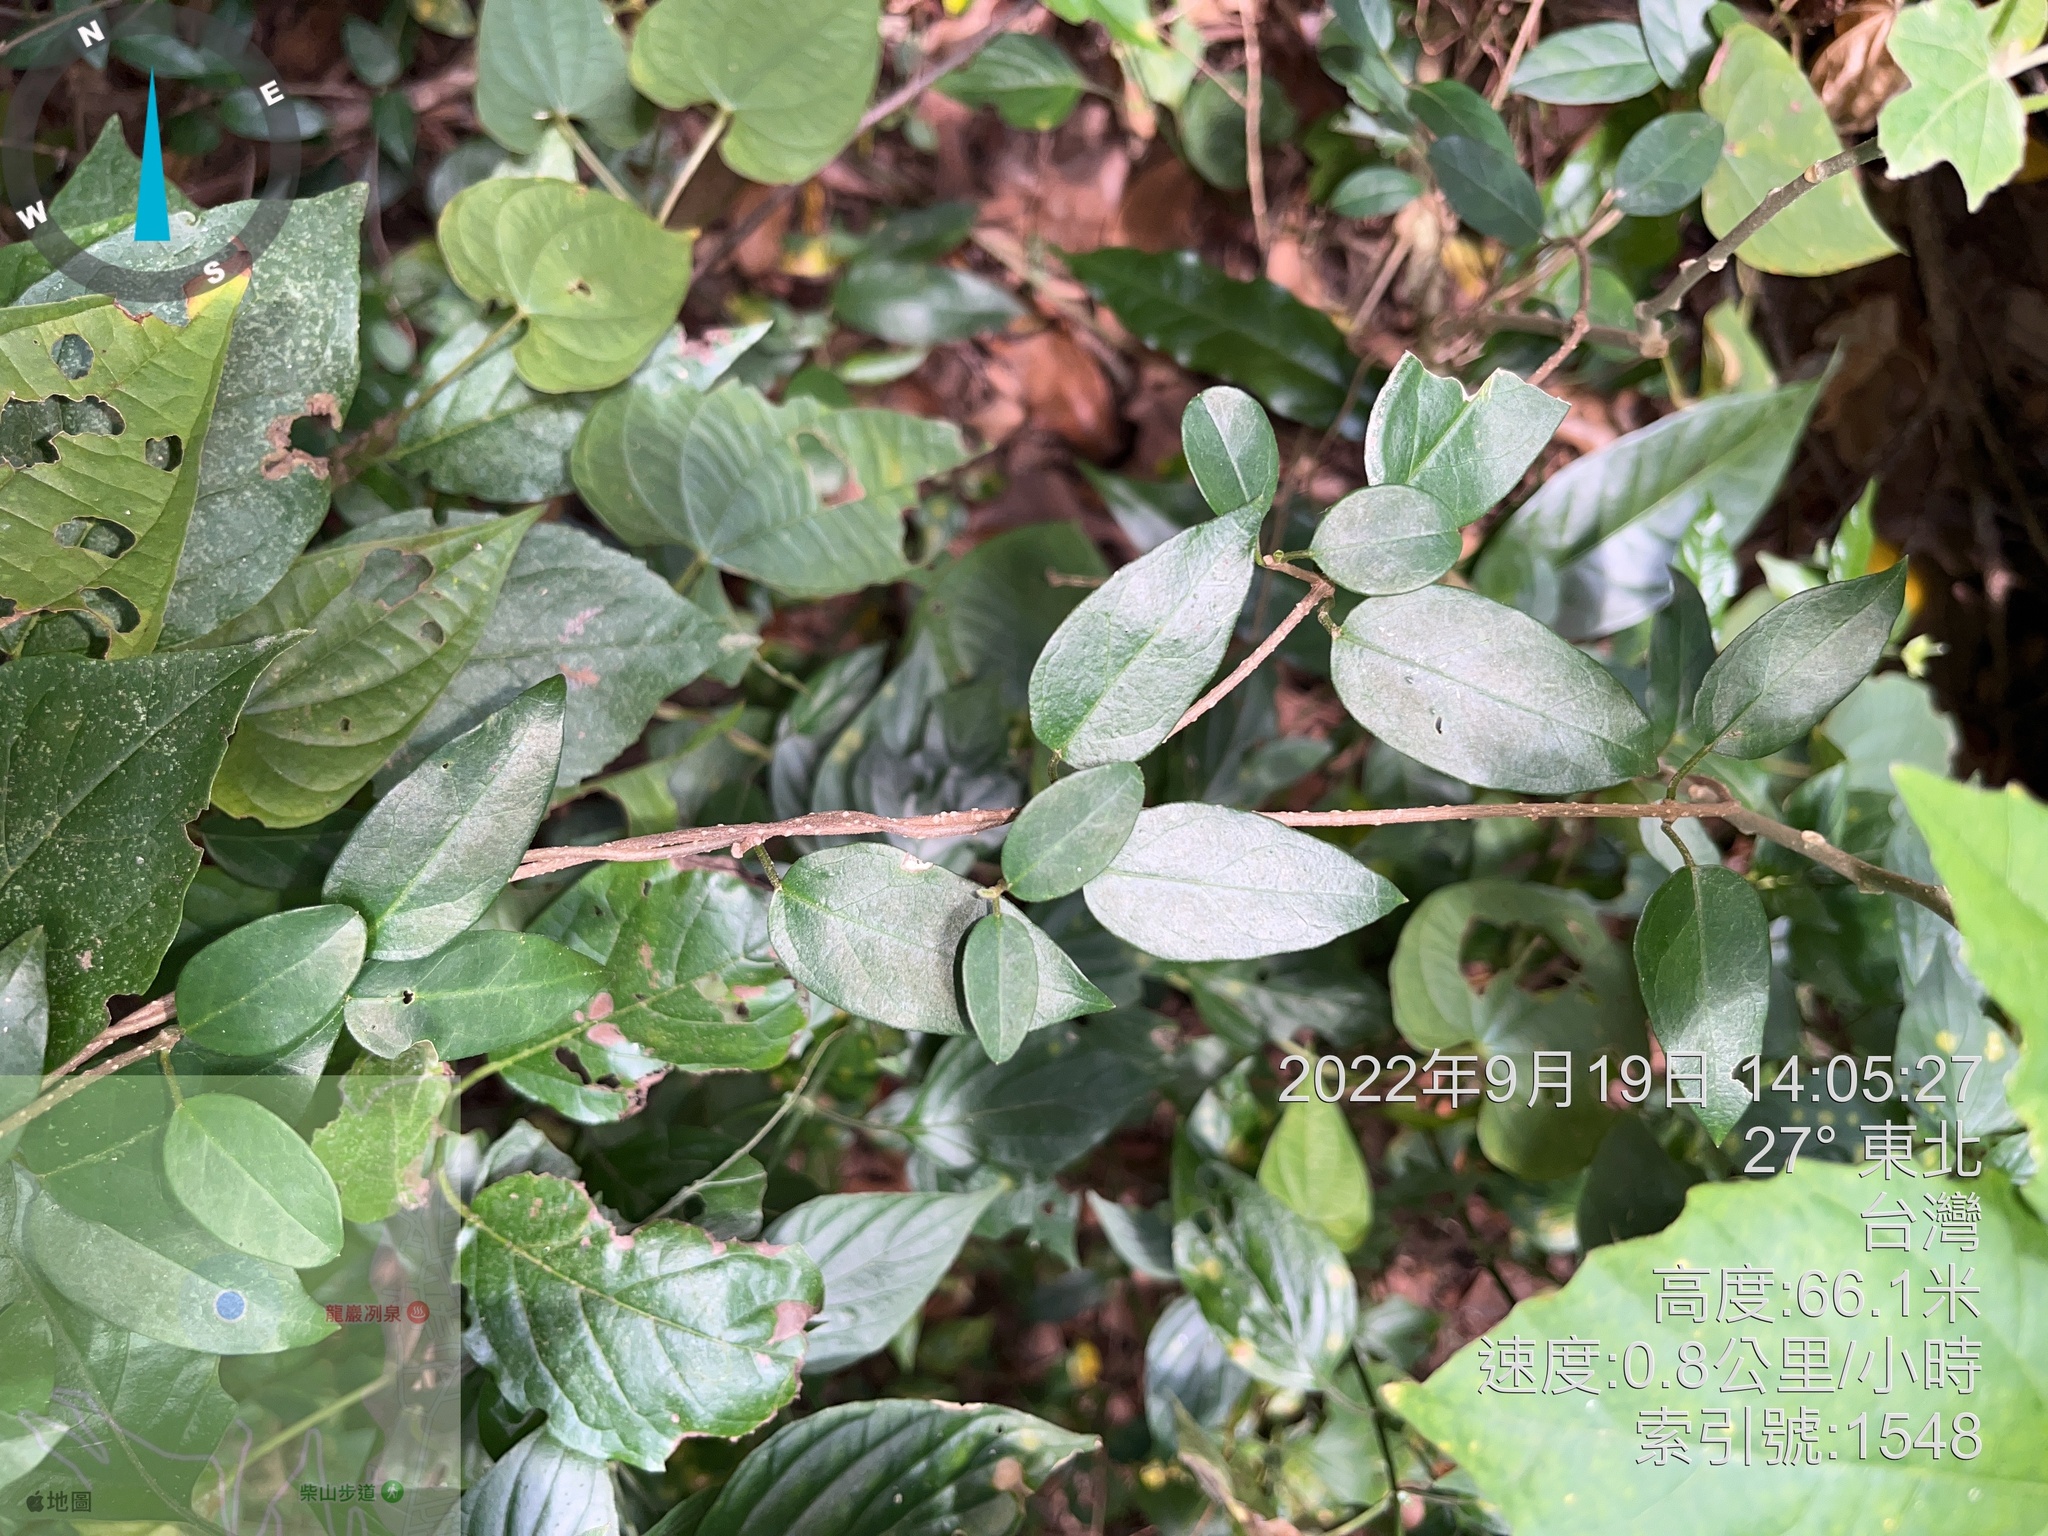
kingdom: Plantae
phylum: Tracheophyta
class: Magnoliopsida
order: Caryophyllales
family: Nyctaginaceae
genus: Pisonia
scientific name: Pisonia aculeata
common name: Cockspur vine
